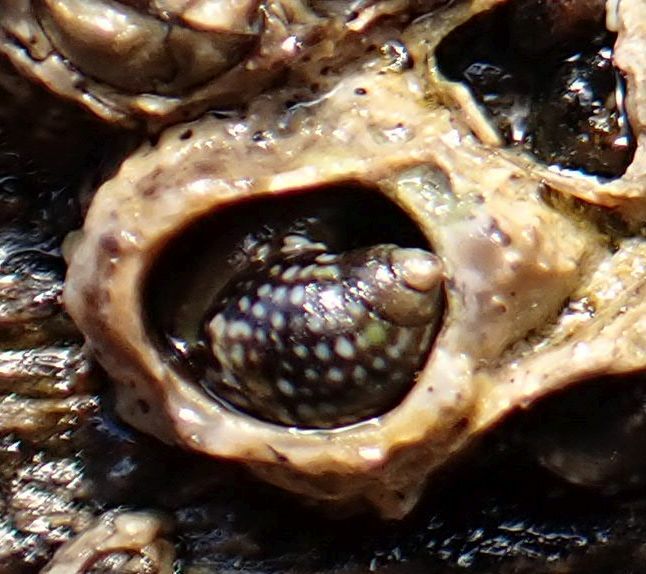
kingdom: Animalia
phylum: Mollusca
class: Gastropoda
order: Littorinimorpha
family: Littorinidae
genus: Echinolittorina
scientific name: Echinolittorina punctata
